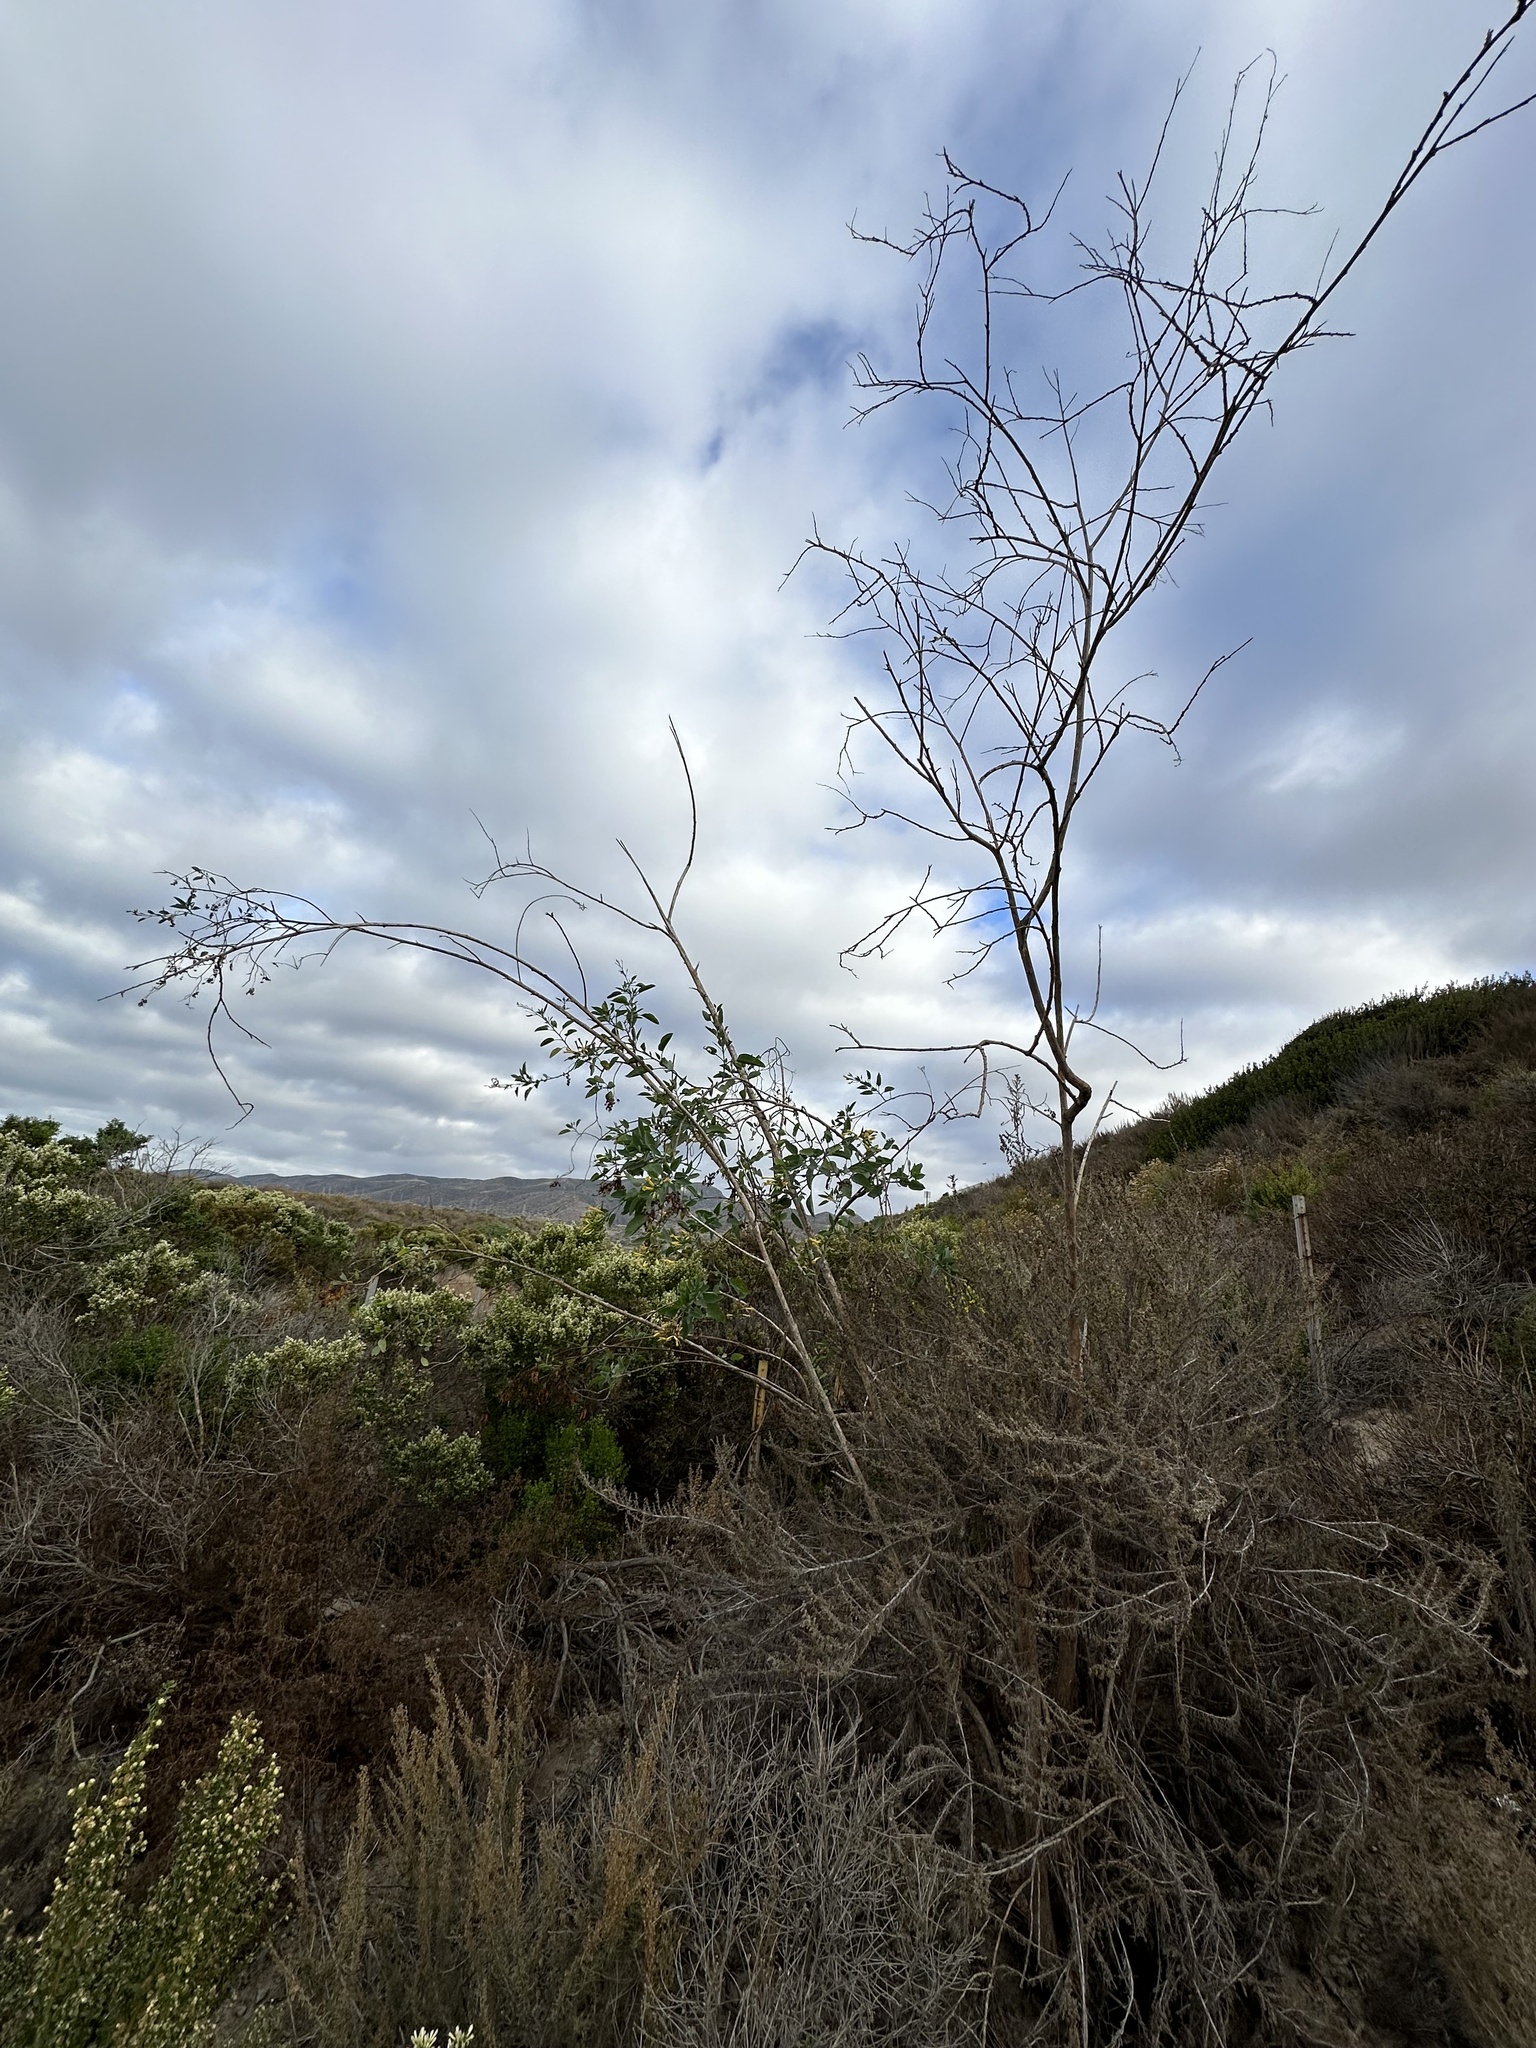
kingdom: Plantae
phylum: Tracheophyta
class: Magnoliopsida
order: Solanales
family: Solanaceae
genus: Nicotiana
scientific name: Nicotiana glauca
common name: Tree tobacco
